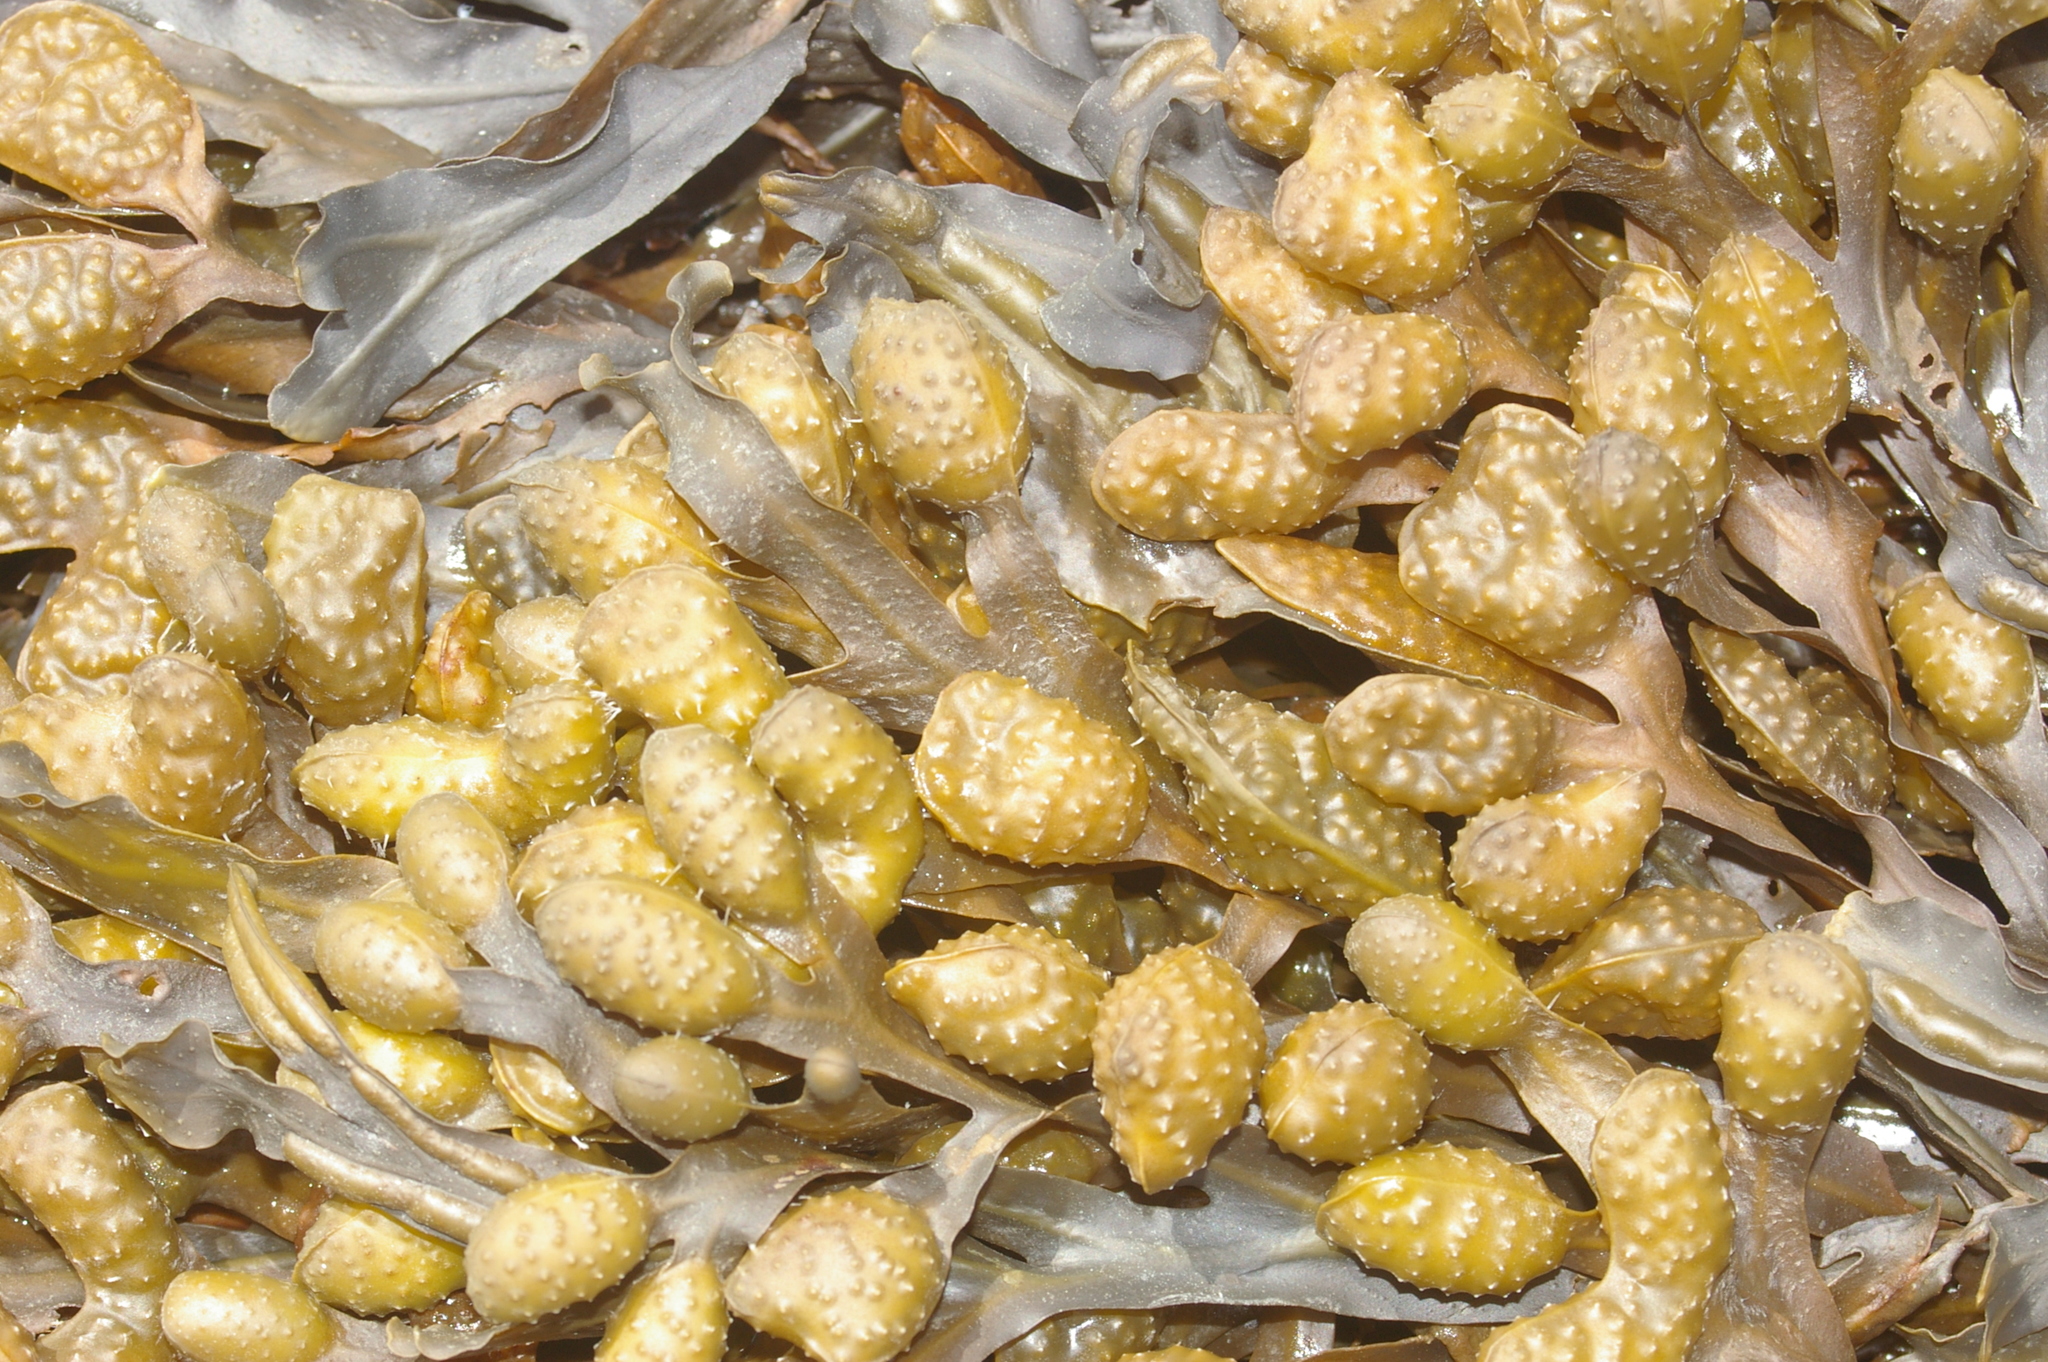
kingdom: Chromista
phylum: Ochrophyta
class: Phaeophyceae
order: Fucales
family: Fucaceae
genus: Fucus
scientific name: Fucus spiralis
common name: Spiral wrack
